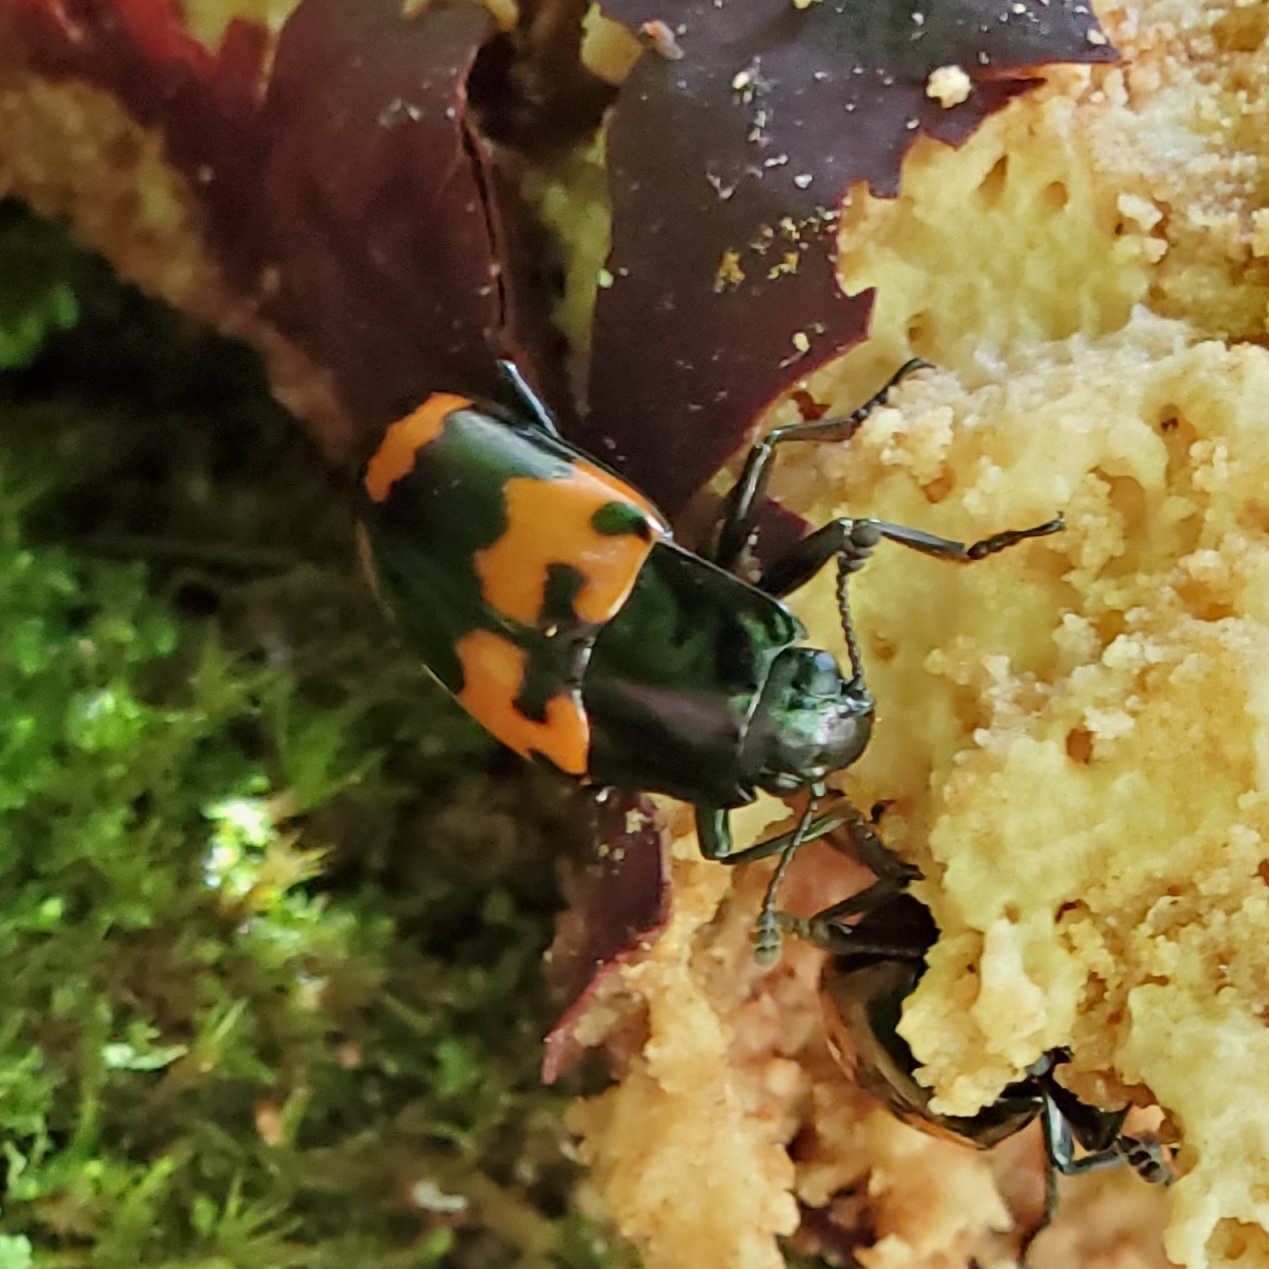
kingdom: Animalia
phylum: Arthropoda
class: Insecta
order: Coleoptera
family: Erotylidae
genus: Megalodacne
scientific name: Megalodacne heros
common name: Pleasing fungus beetle
